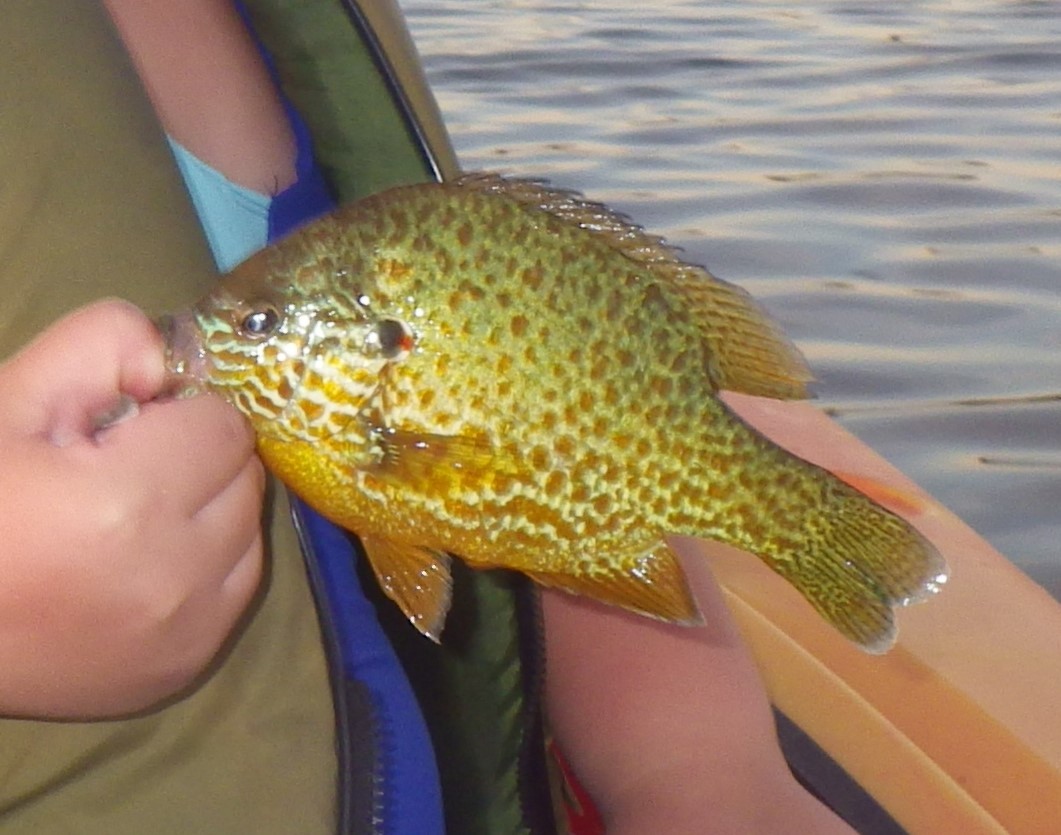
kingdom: Animalia
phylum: Chordata
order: Perciformes
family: Centrarchidae
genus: Lepomis
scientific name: Lepomis gibbosus
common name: Pumpkinseed
